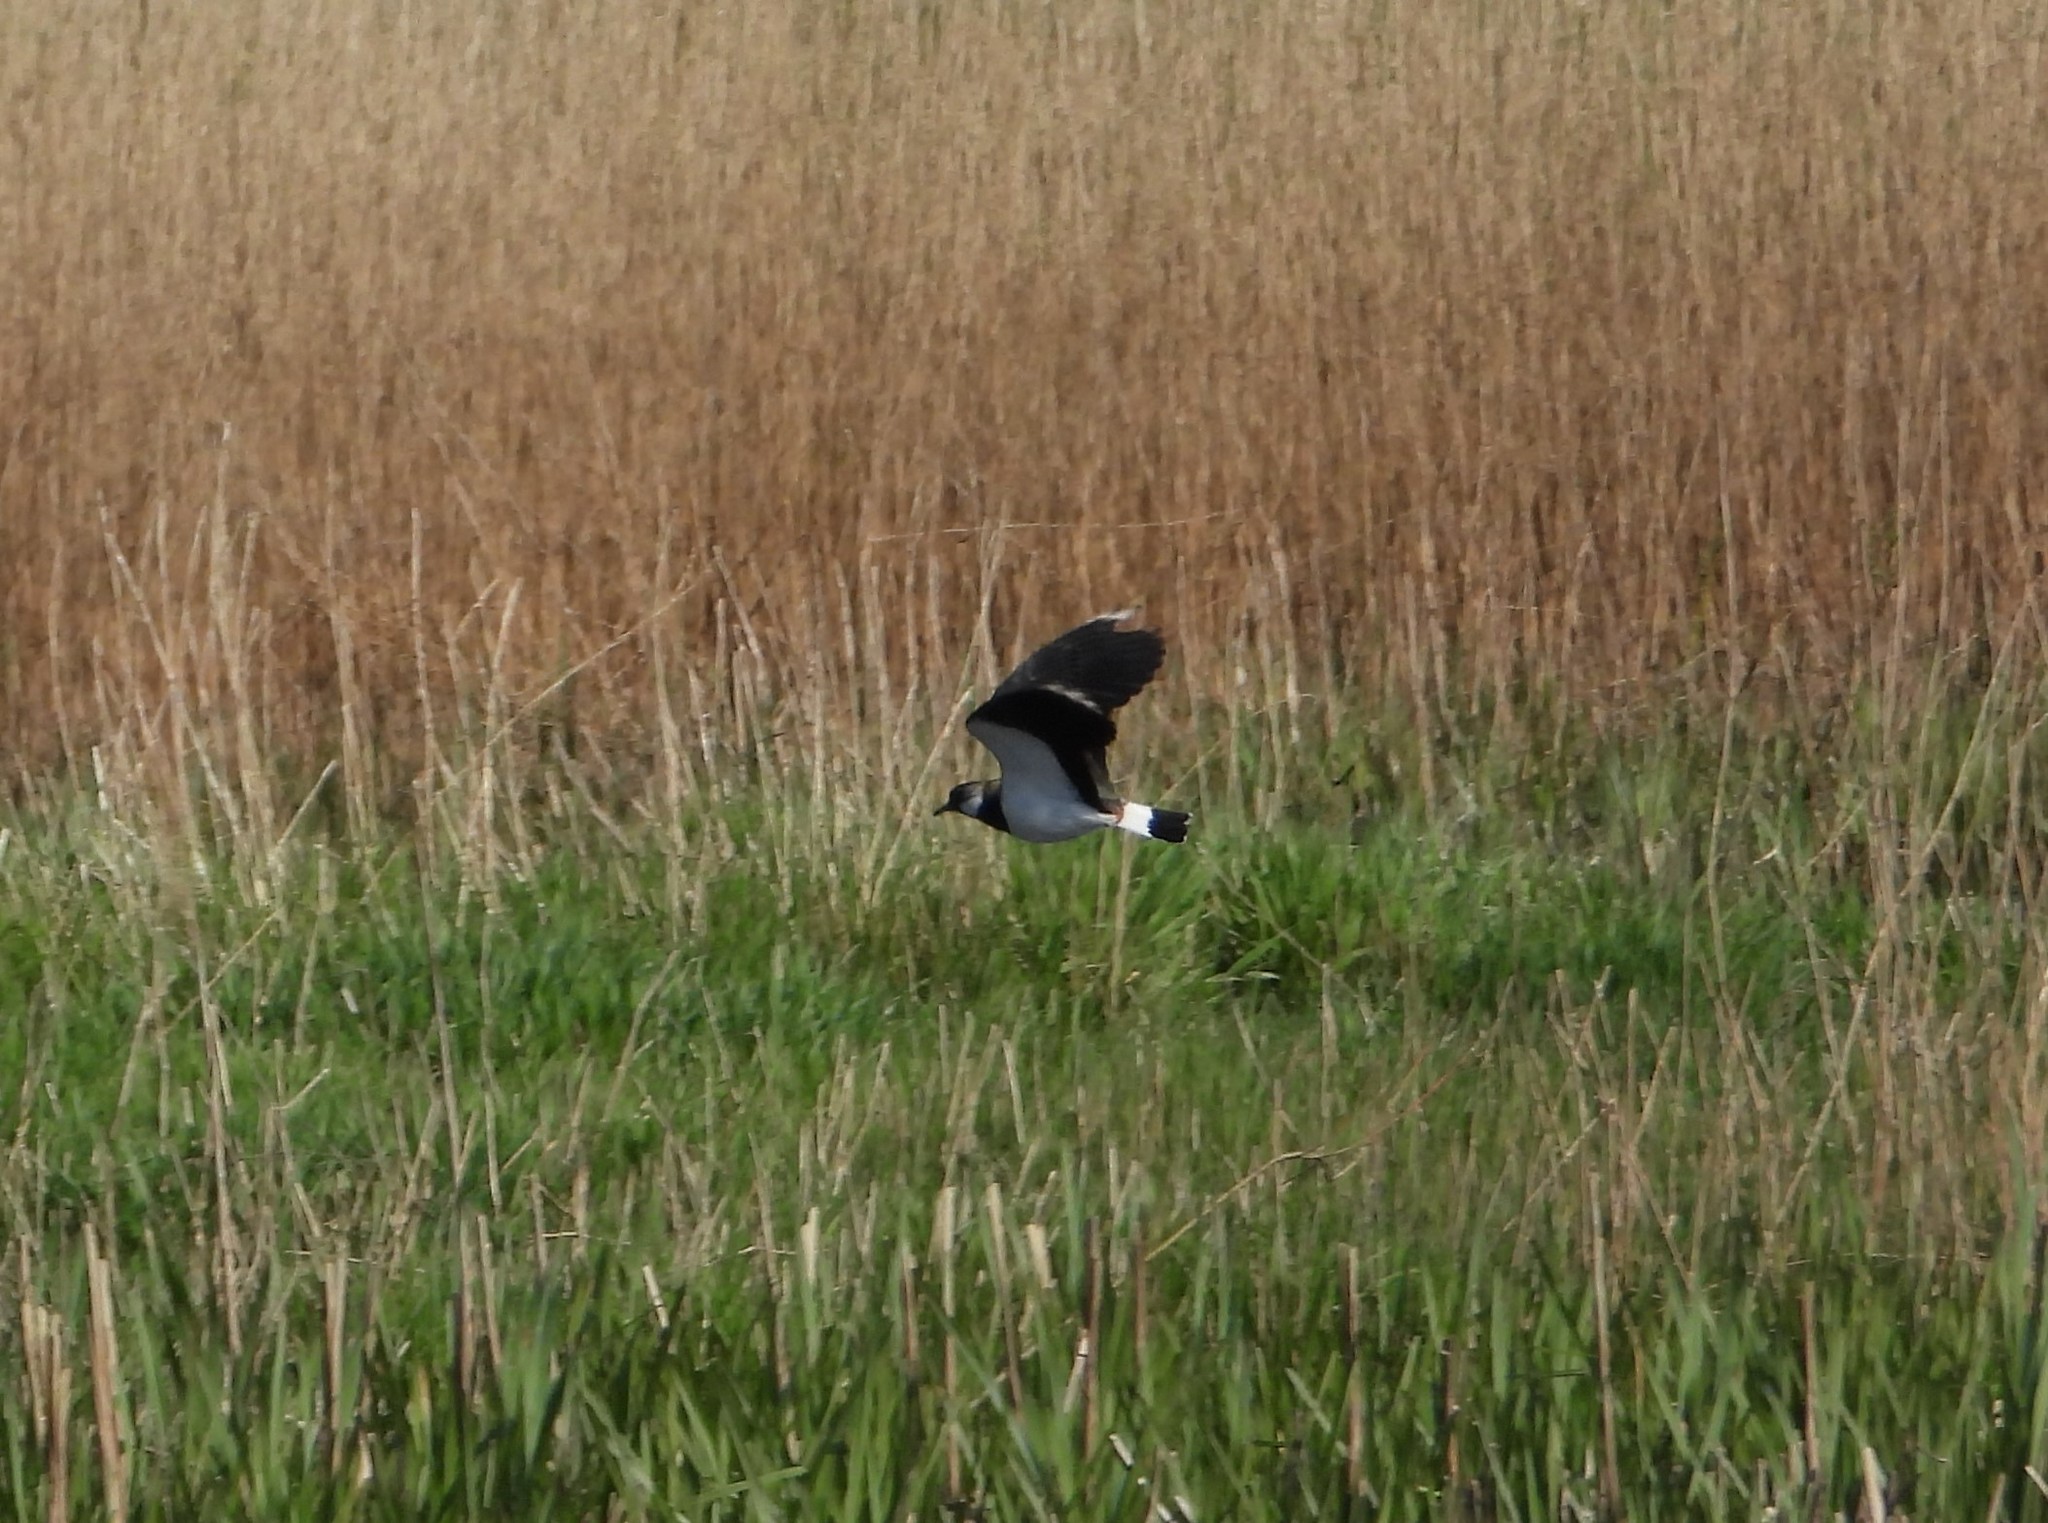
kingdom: Animalia
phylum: Chordata
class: Aves
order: Charadriiformes
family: Charadriidae
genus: Vanellus
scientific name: Vanellus vanellus
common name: Northern lapwing
